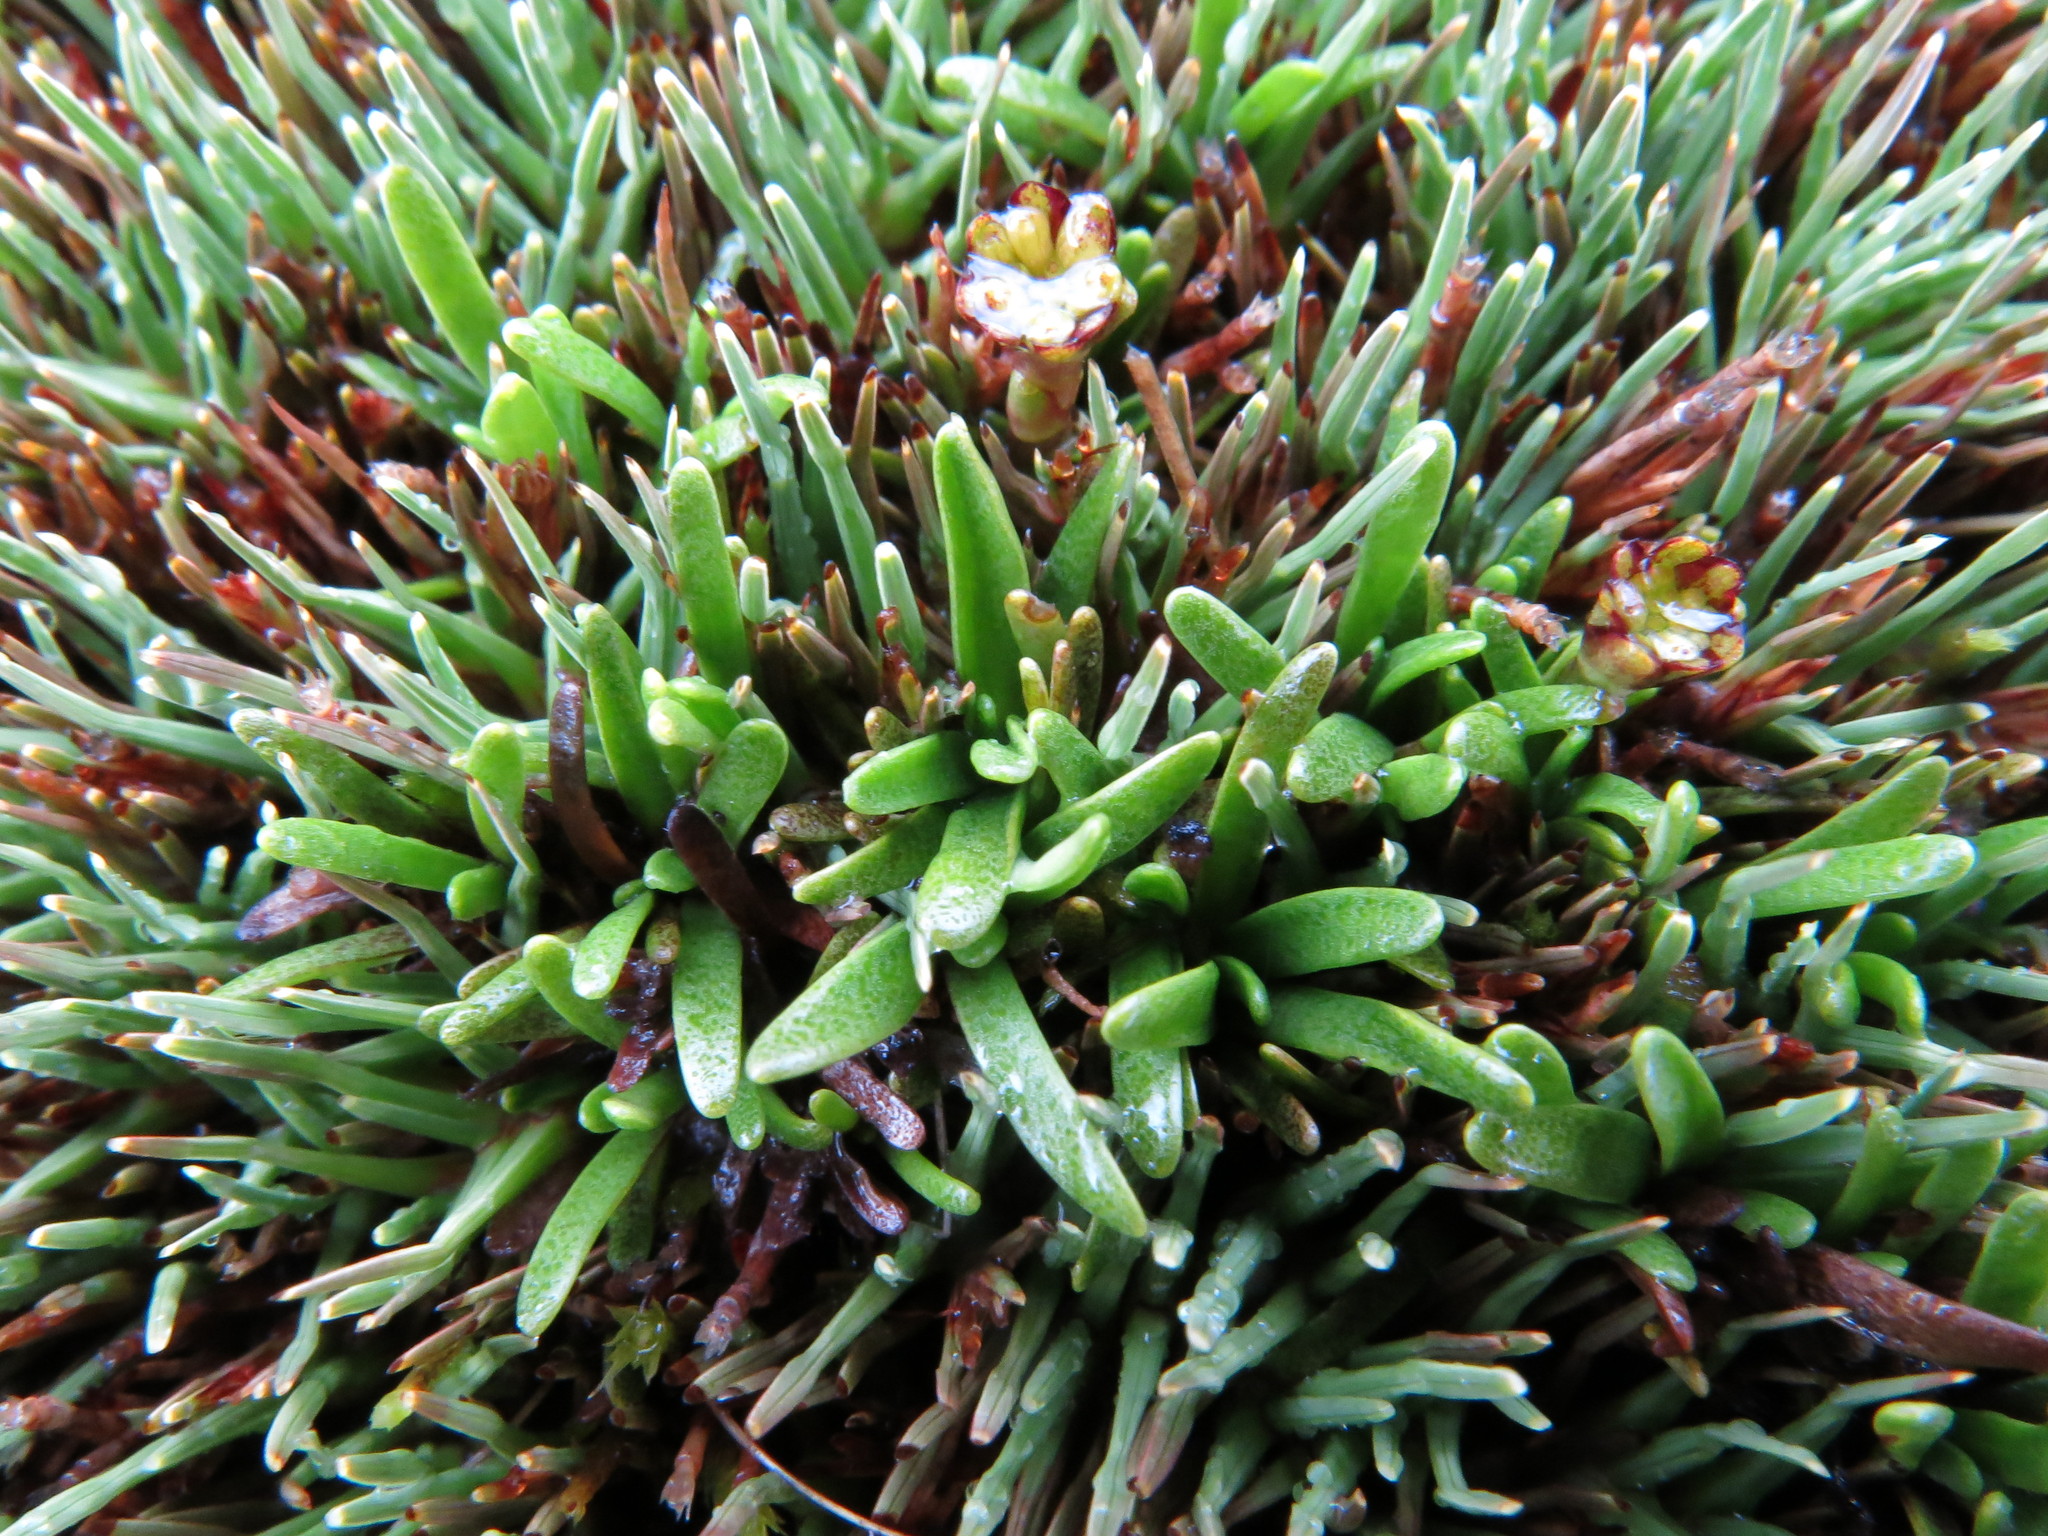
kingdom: Plantae
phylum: Tracheophyta
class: Magnoliopsida
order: Asterales
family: Asteraceae
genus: Abrotanella
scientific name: Abrotanella caespitosa
